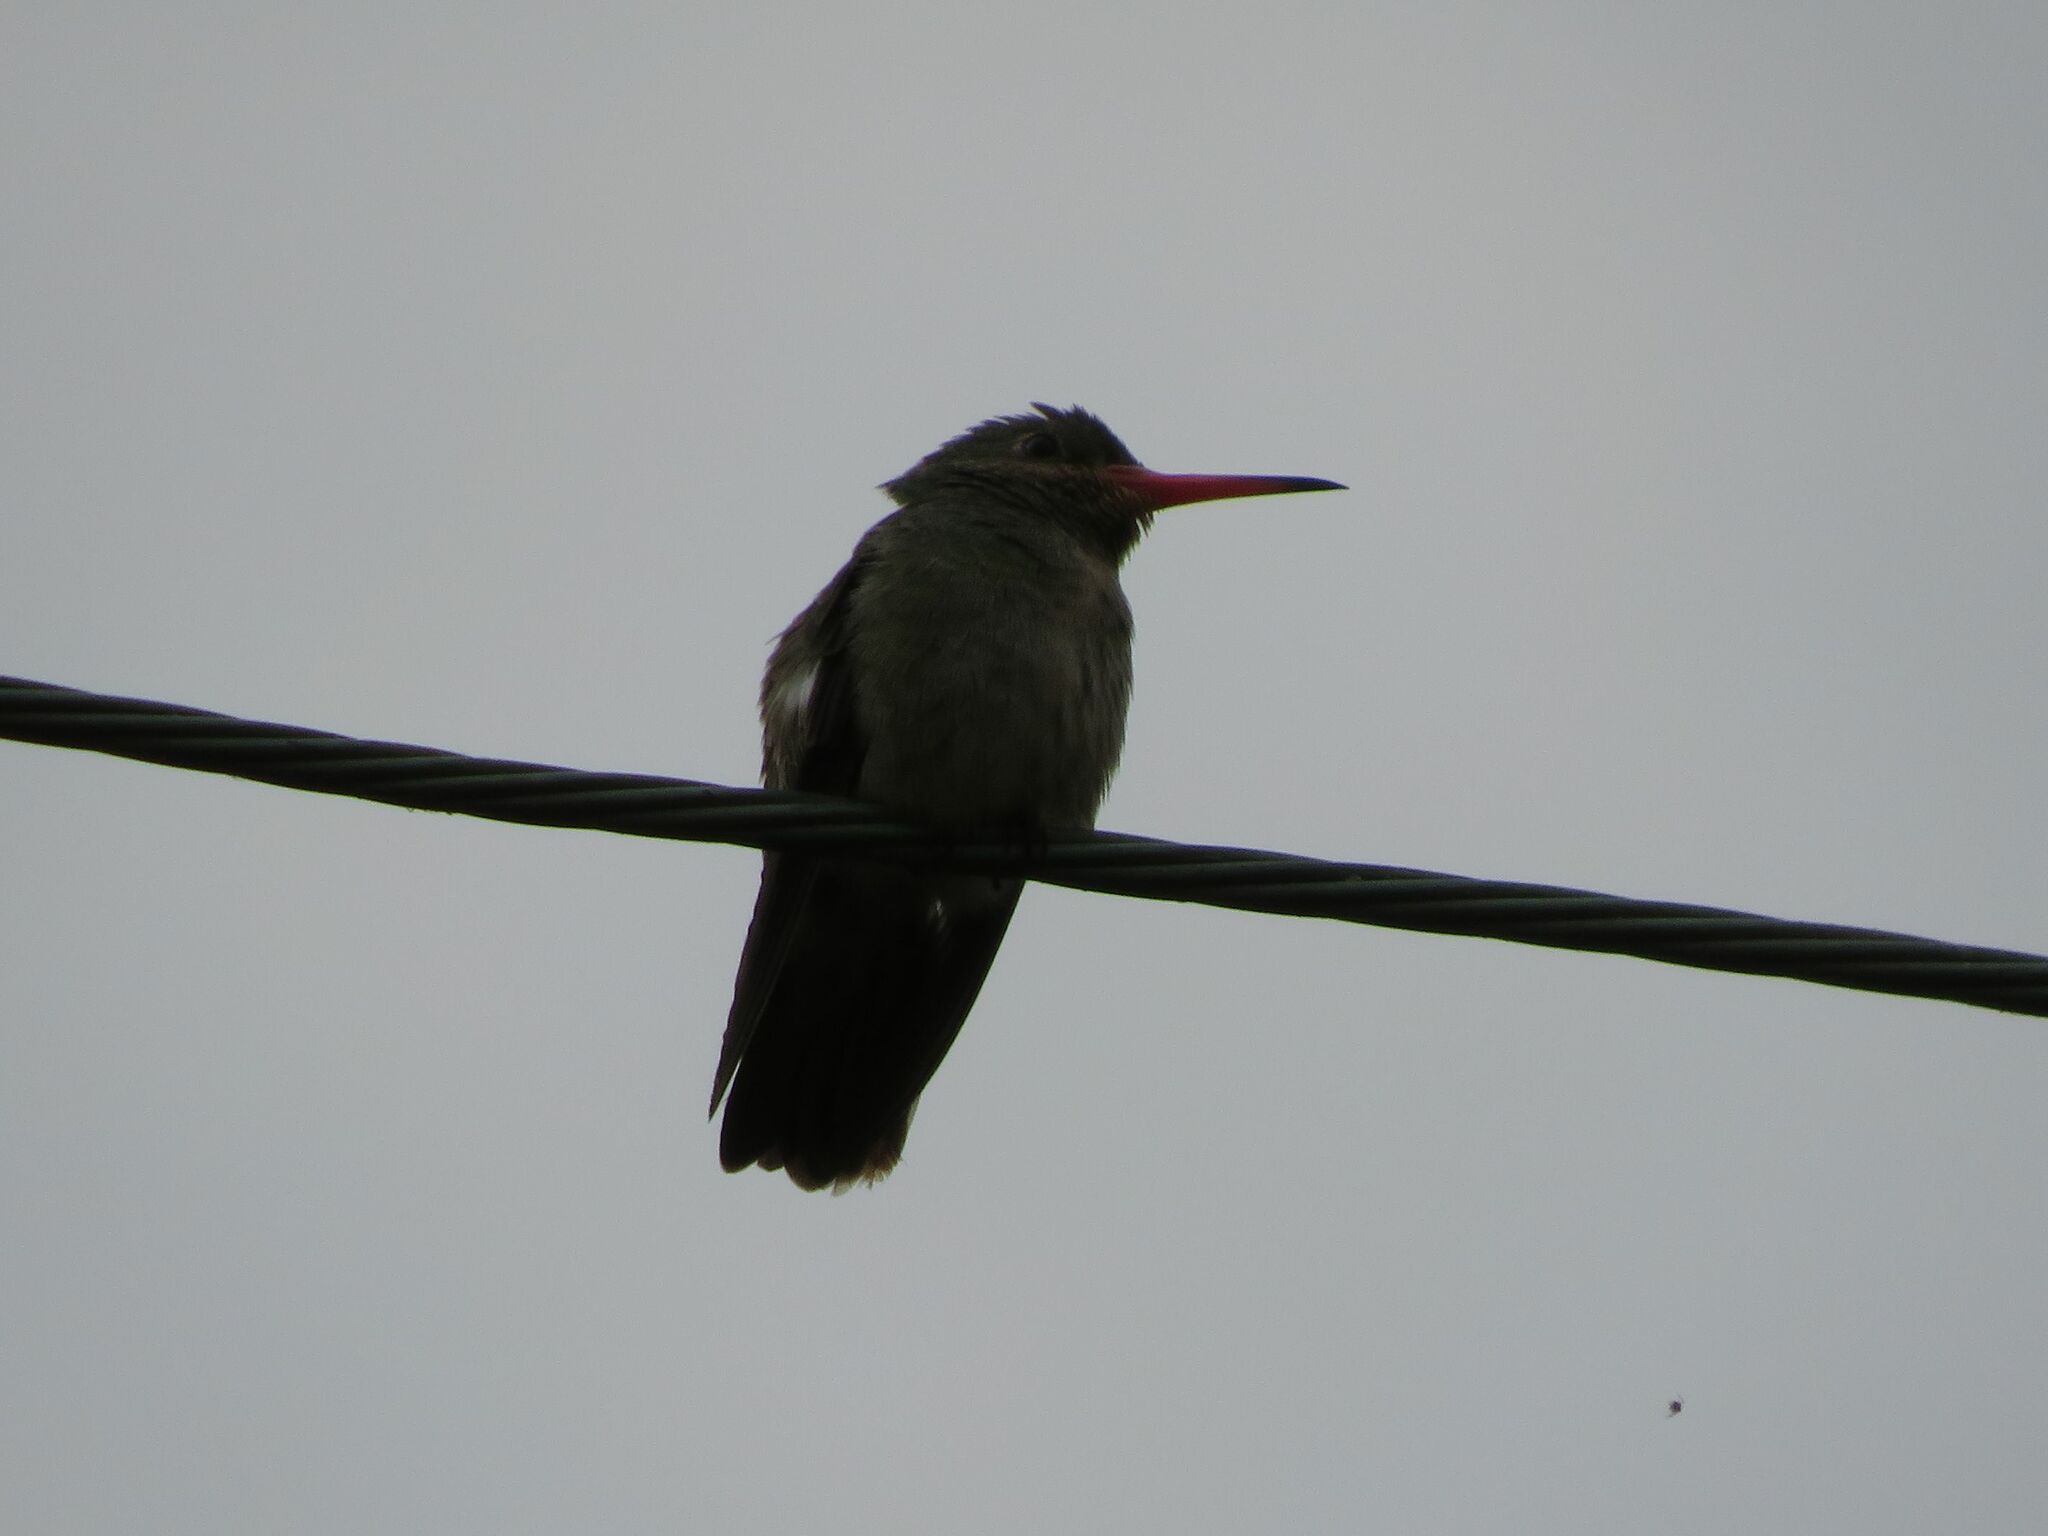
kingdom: Animalia
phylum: Chordata
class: Aves
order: Apodiformes
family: Trochilidae
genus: Hylocharis
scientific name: Hylocharis chrysura
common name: Gilded sapphire
